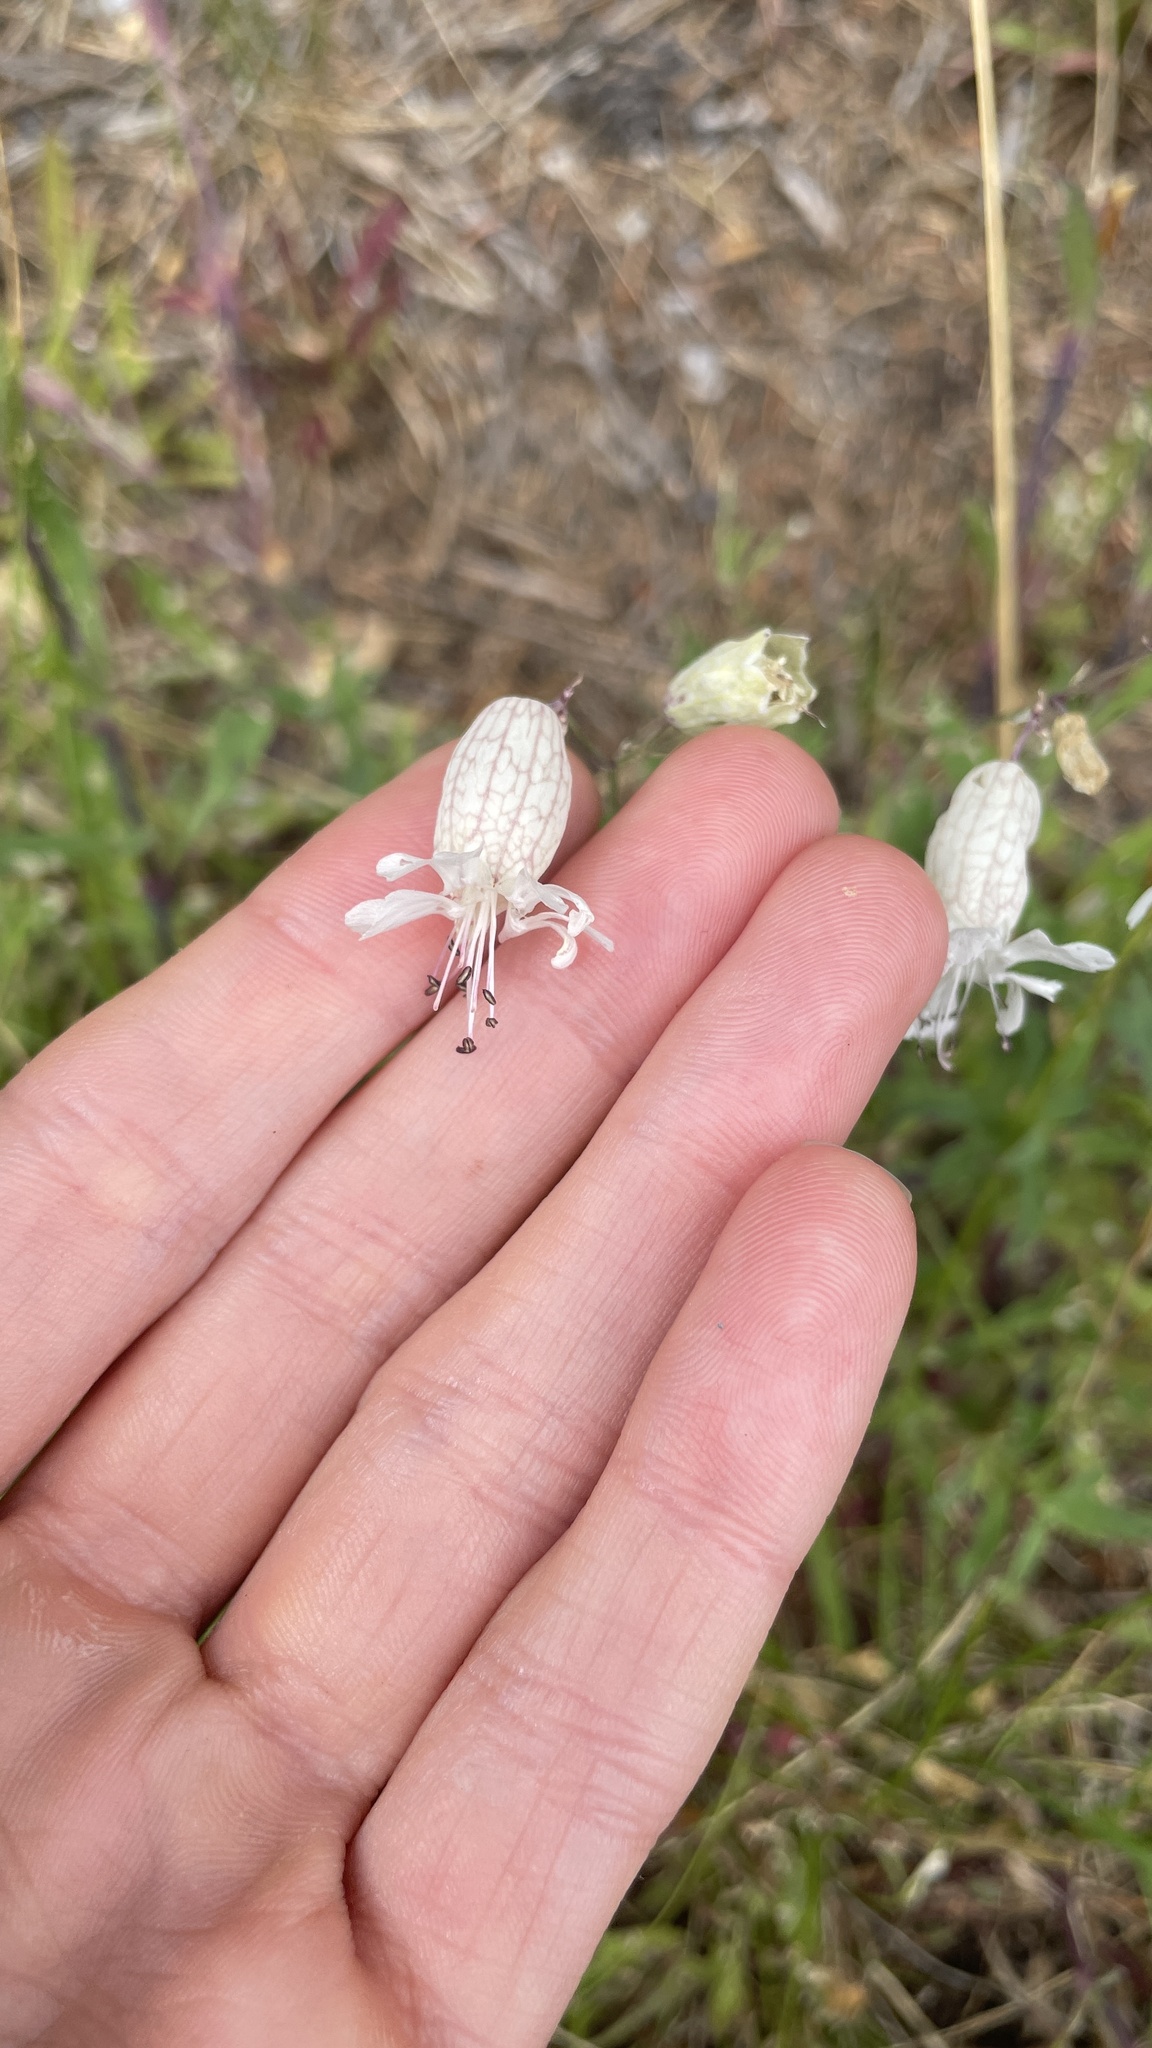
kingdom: Plantae
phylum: Tracheophyta
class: Magnoliopsida
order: Caryophyllales
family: Caryophyllaceae
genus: Silene
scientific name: Silene vulgaris
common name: Bladder campion
